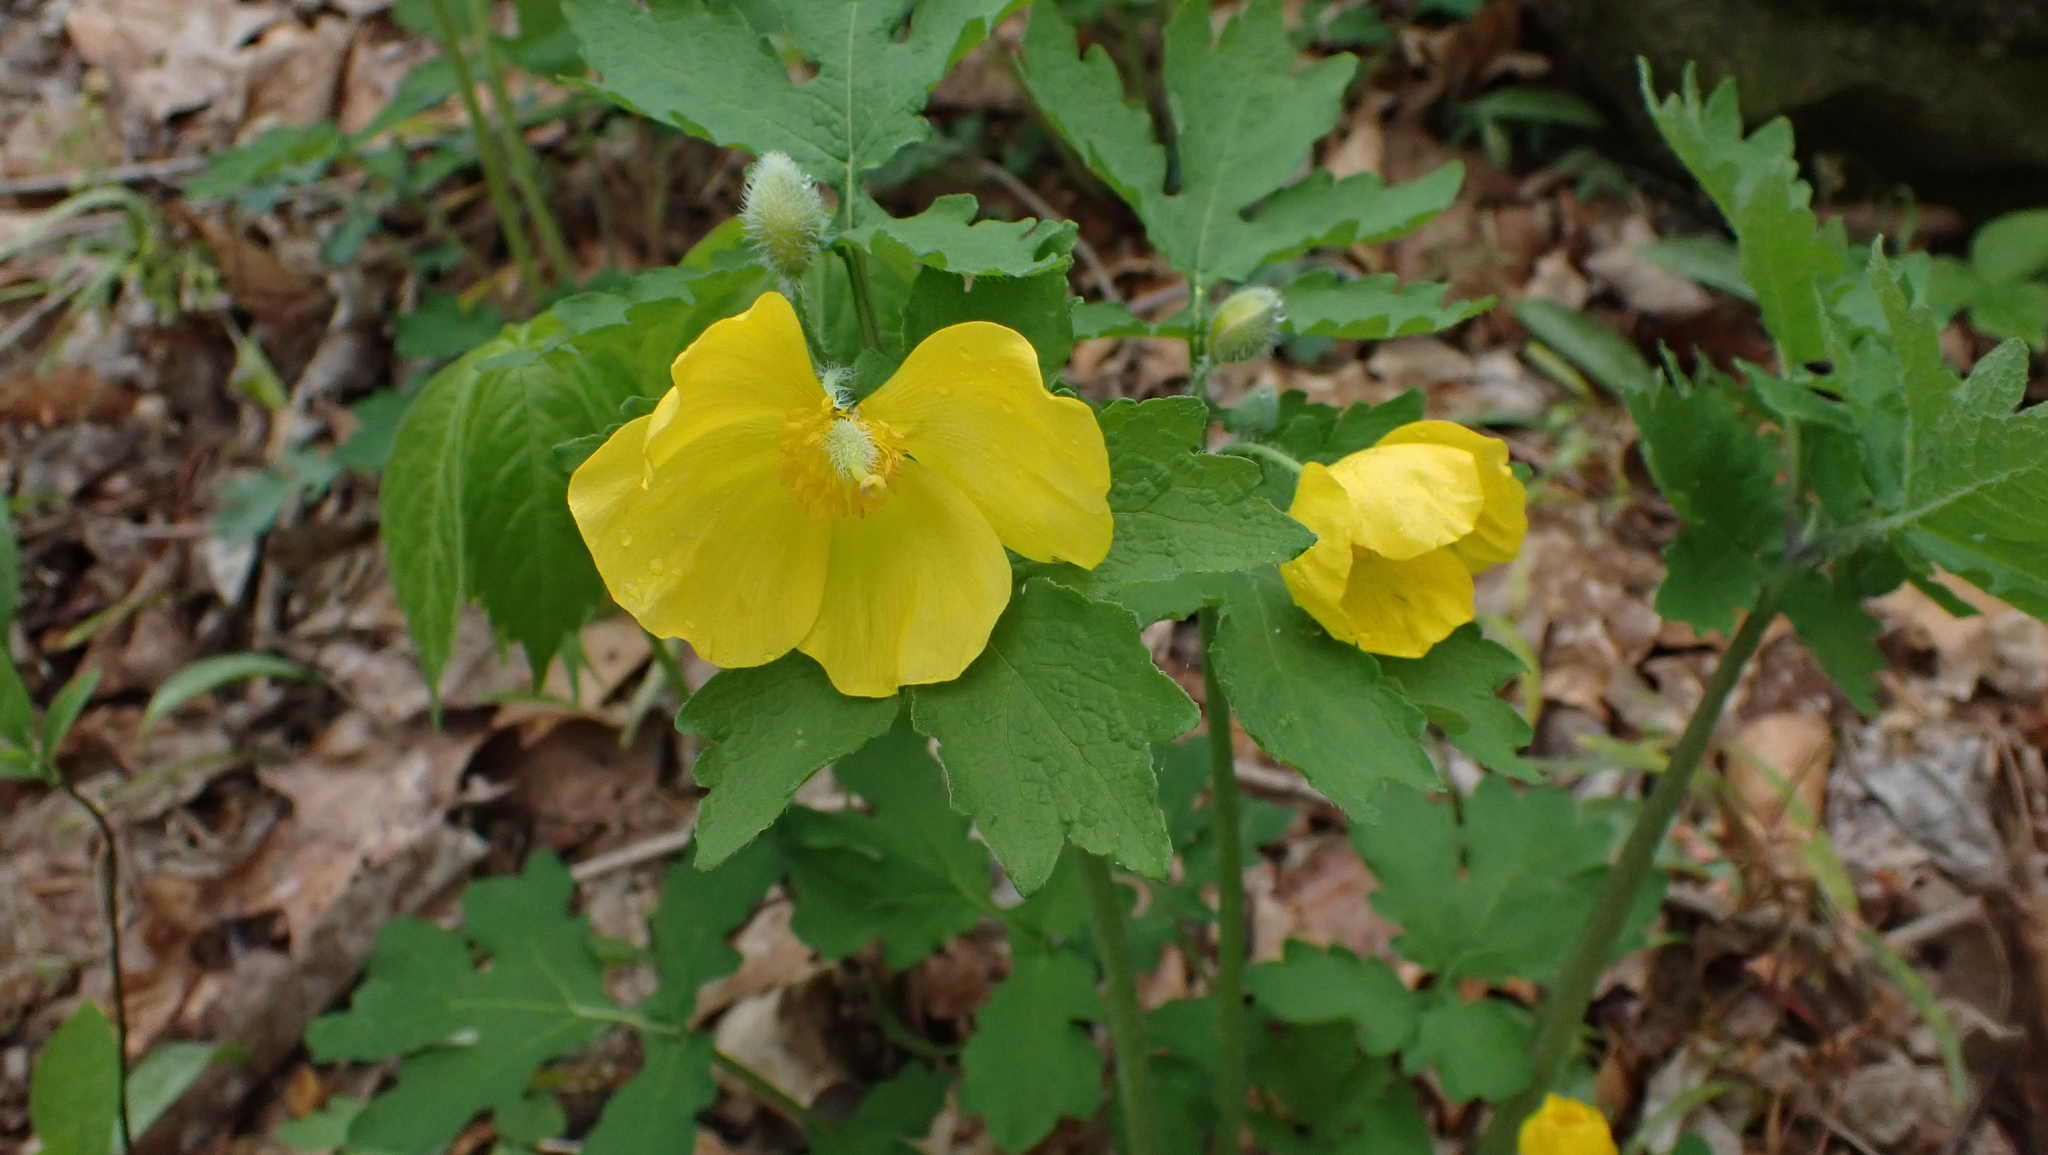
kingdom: Plantae
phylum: Tracheophyta
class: Magnoliopsida
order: Ranunculales
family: Papaveraceae
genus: Stylophorum
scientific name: Stylophorum diphyllum
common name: Celandine poppy
